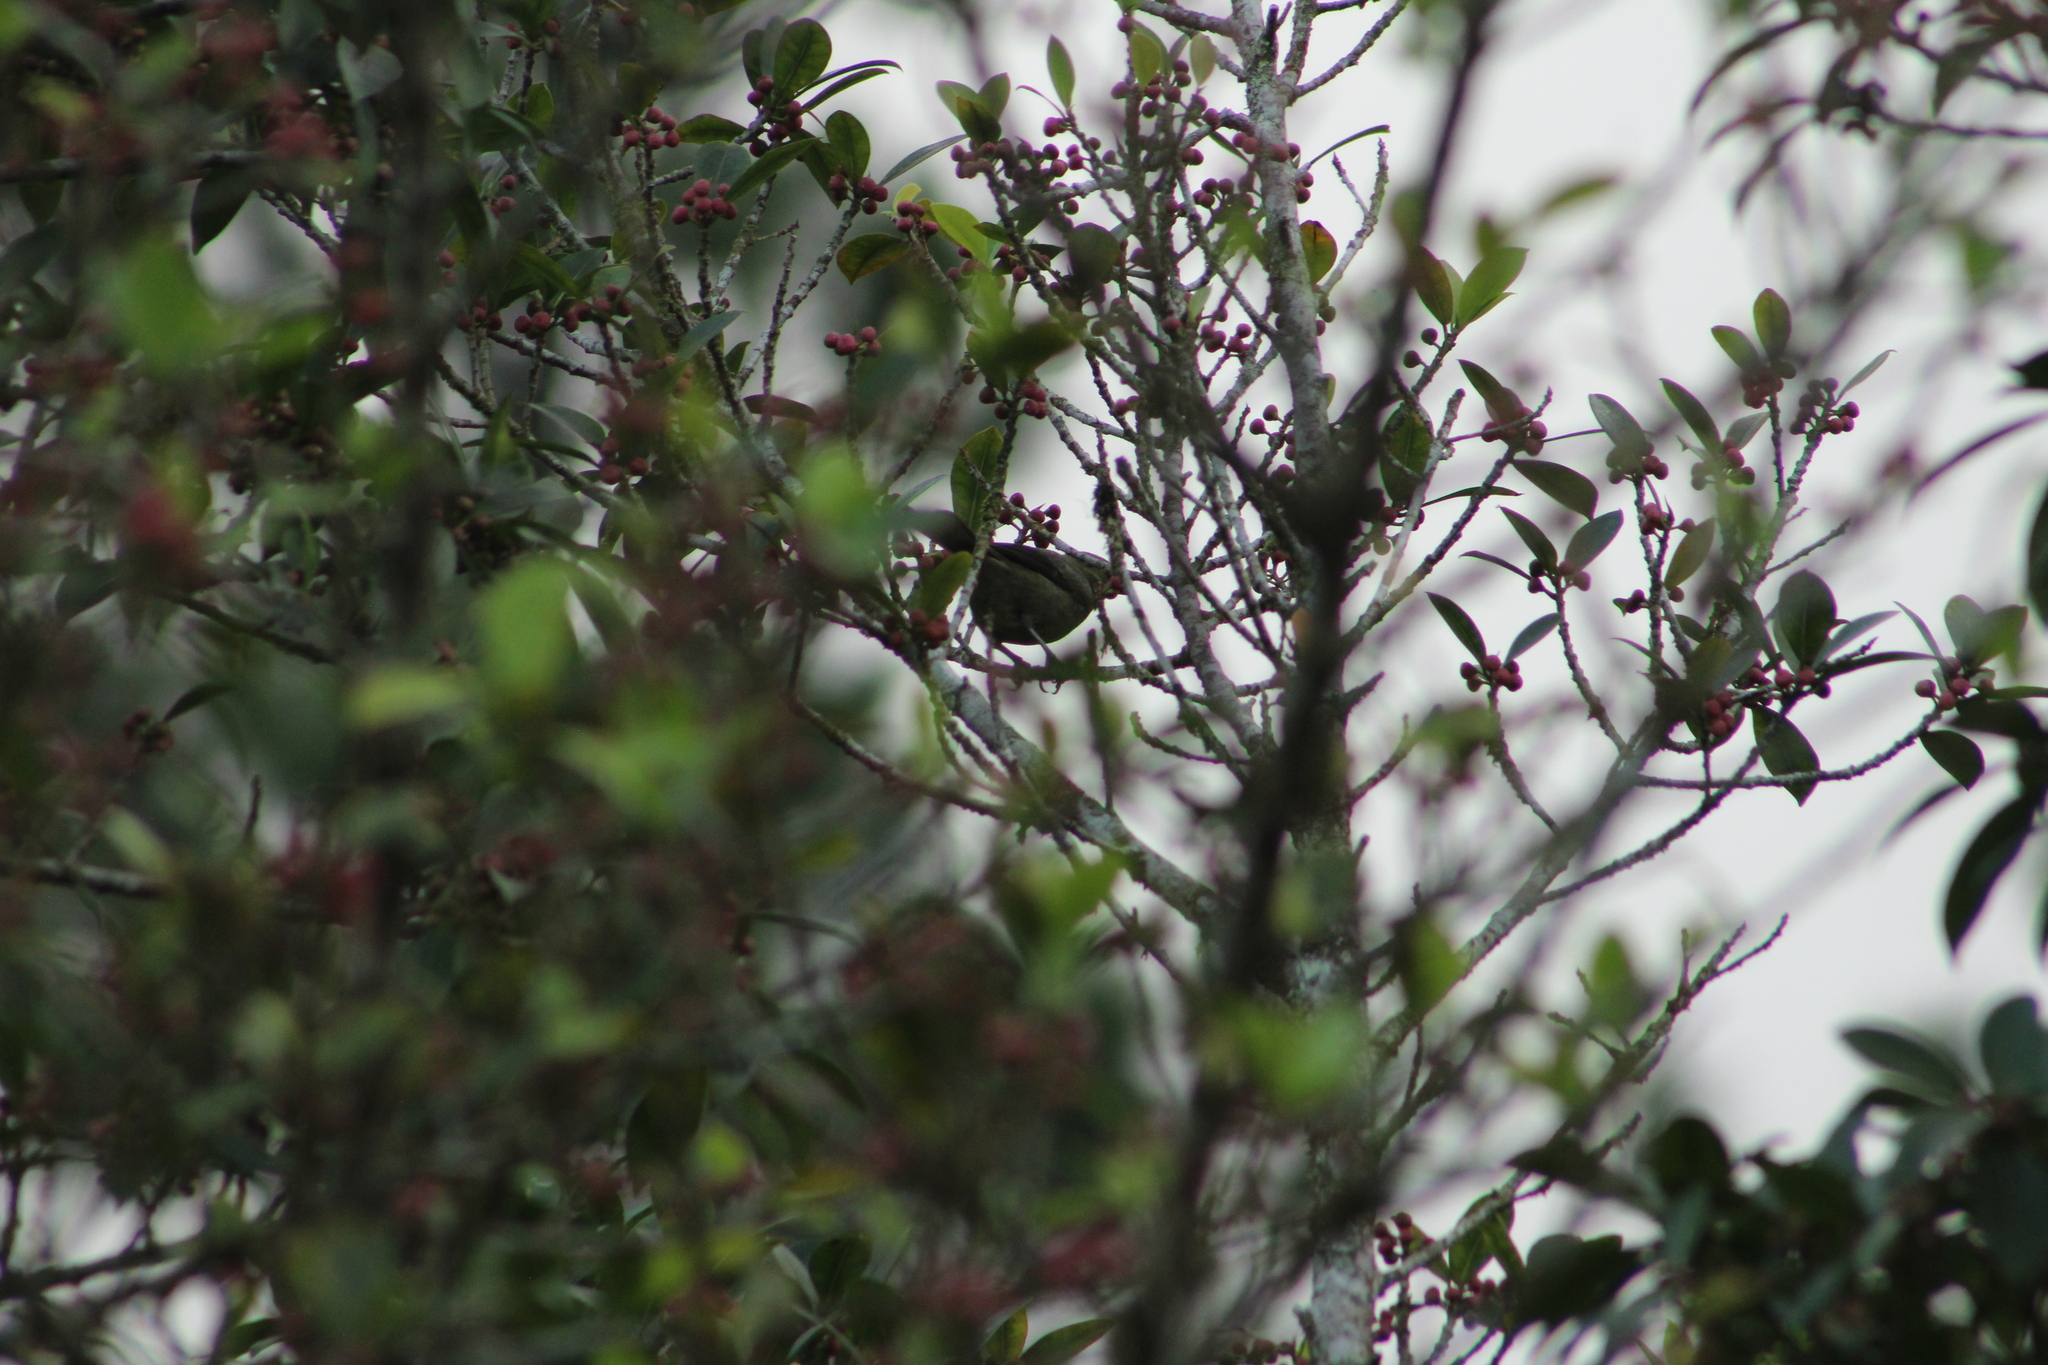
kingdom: Animalia
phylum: Chordata
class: Aves
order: Passeriformes
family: Thraupidae
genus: Thraupis
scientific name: Thraupis palmarum
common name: Palm tanager
